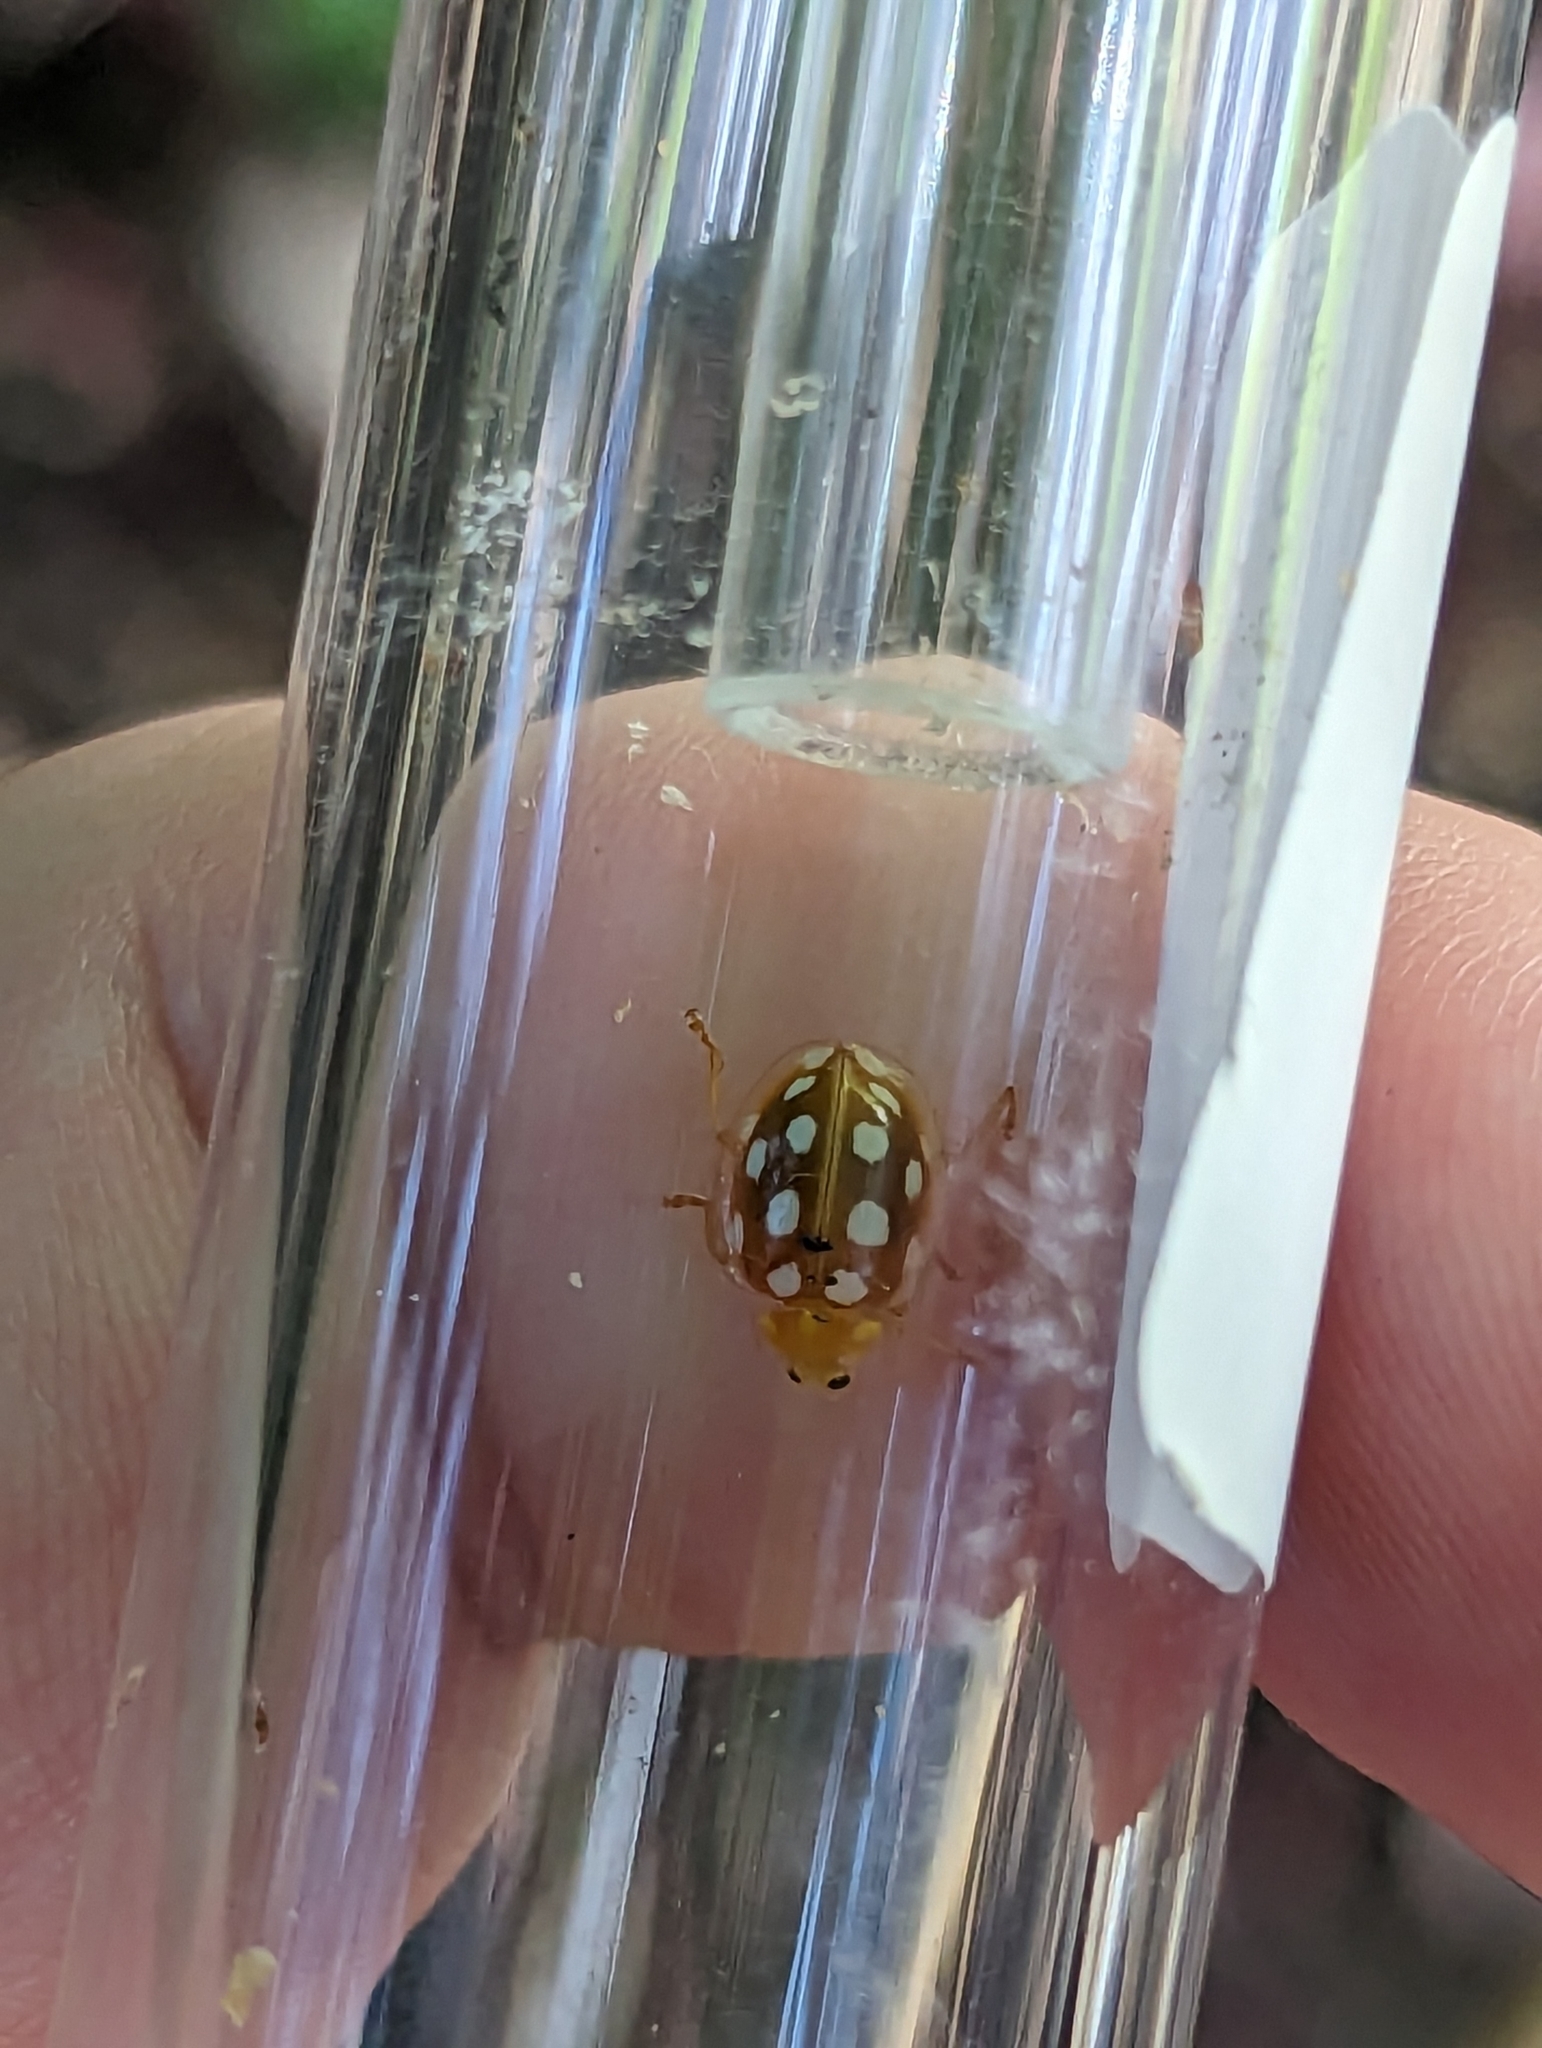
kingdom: Animalia
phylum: Arthropoda
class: Insecta
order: Coleoptera
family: Coccinellidae
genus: Halyzia
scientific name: Halyzia sedecimguttata
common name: Orange ladybird
